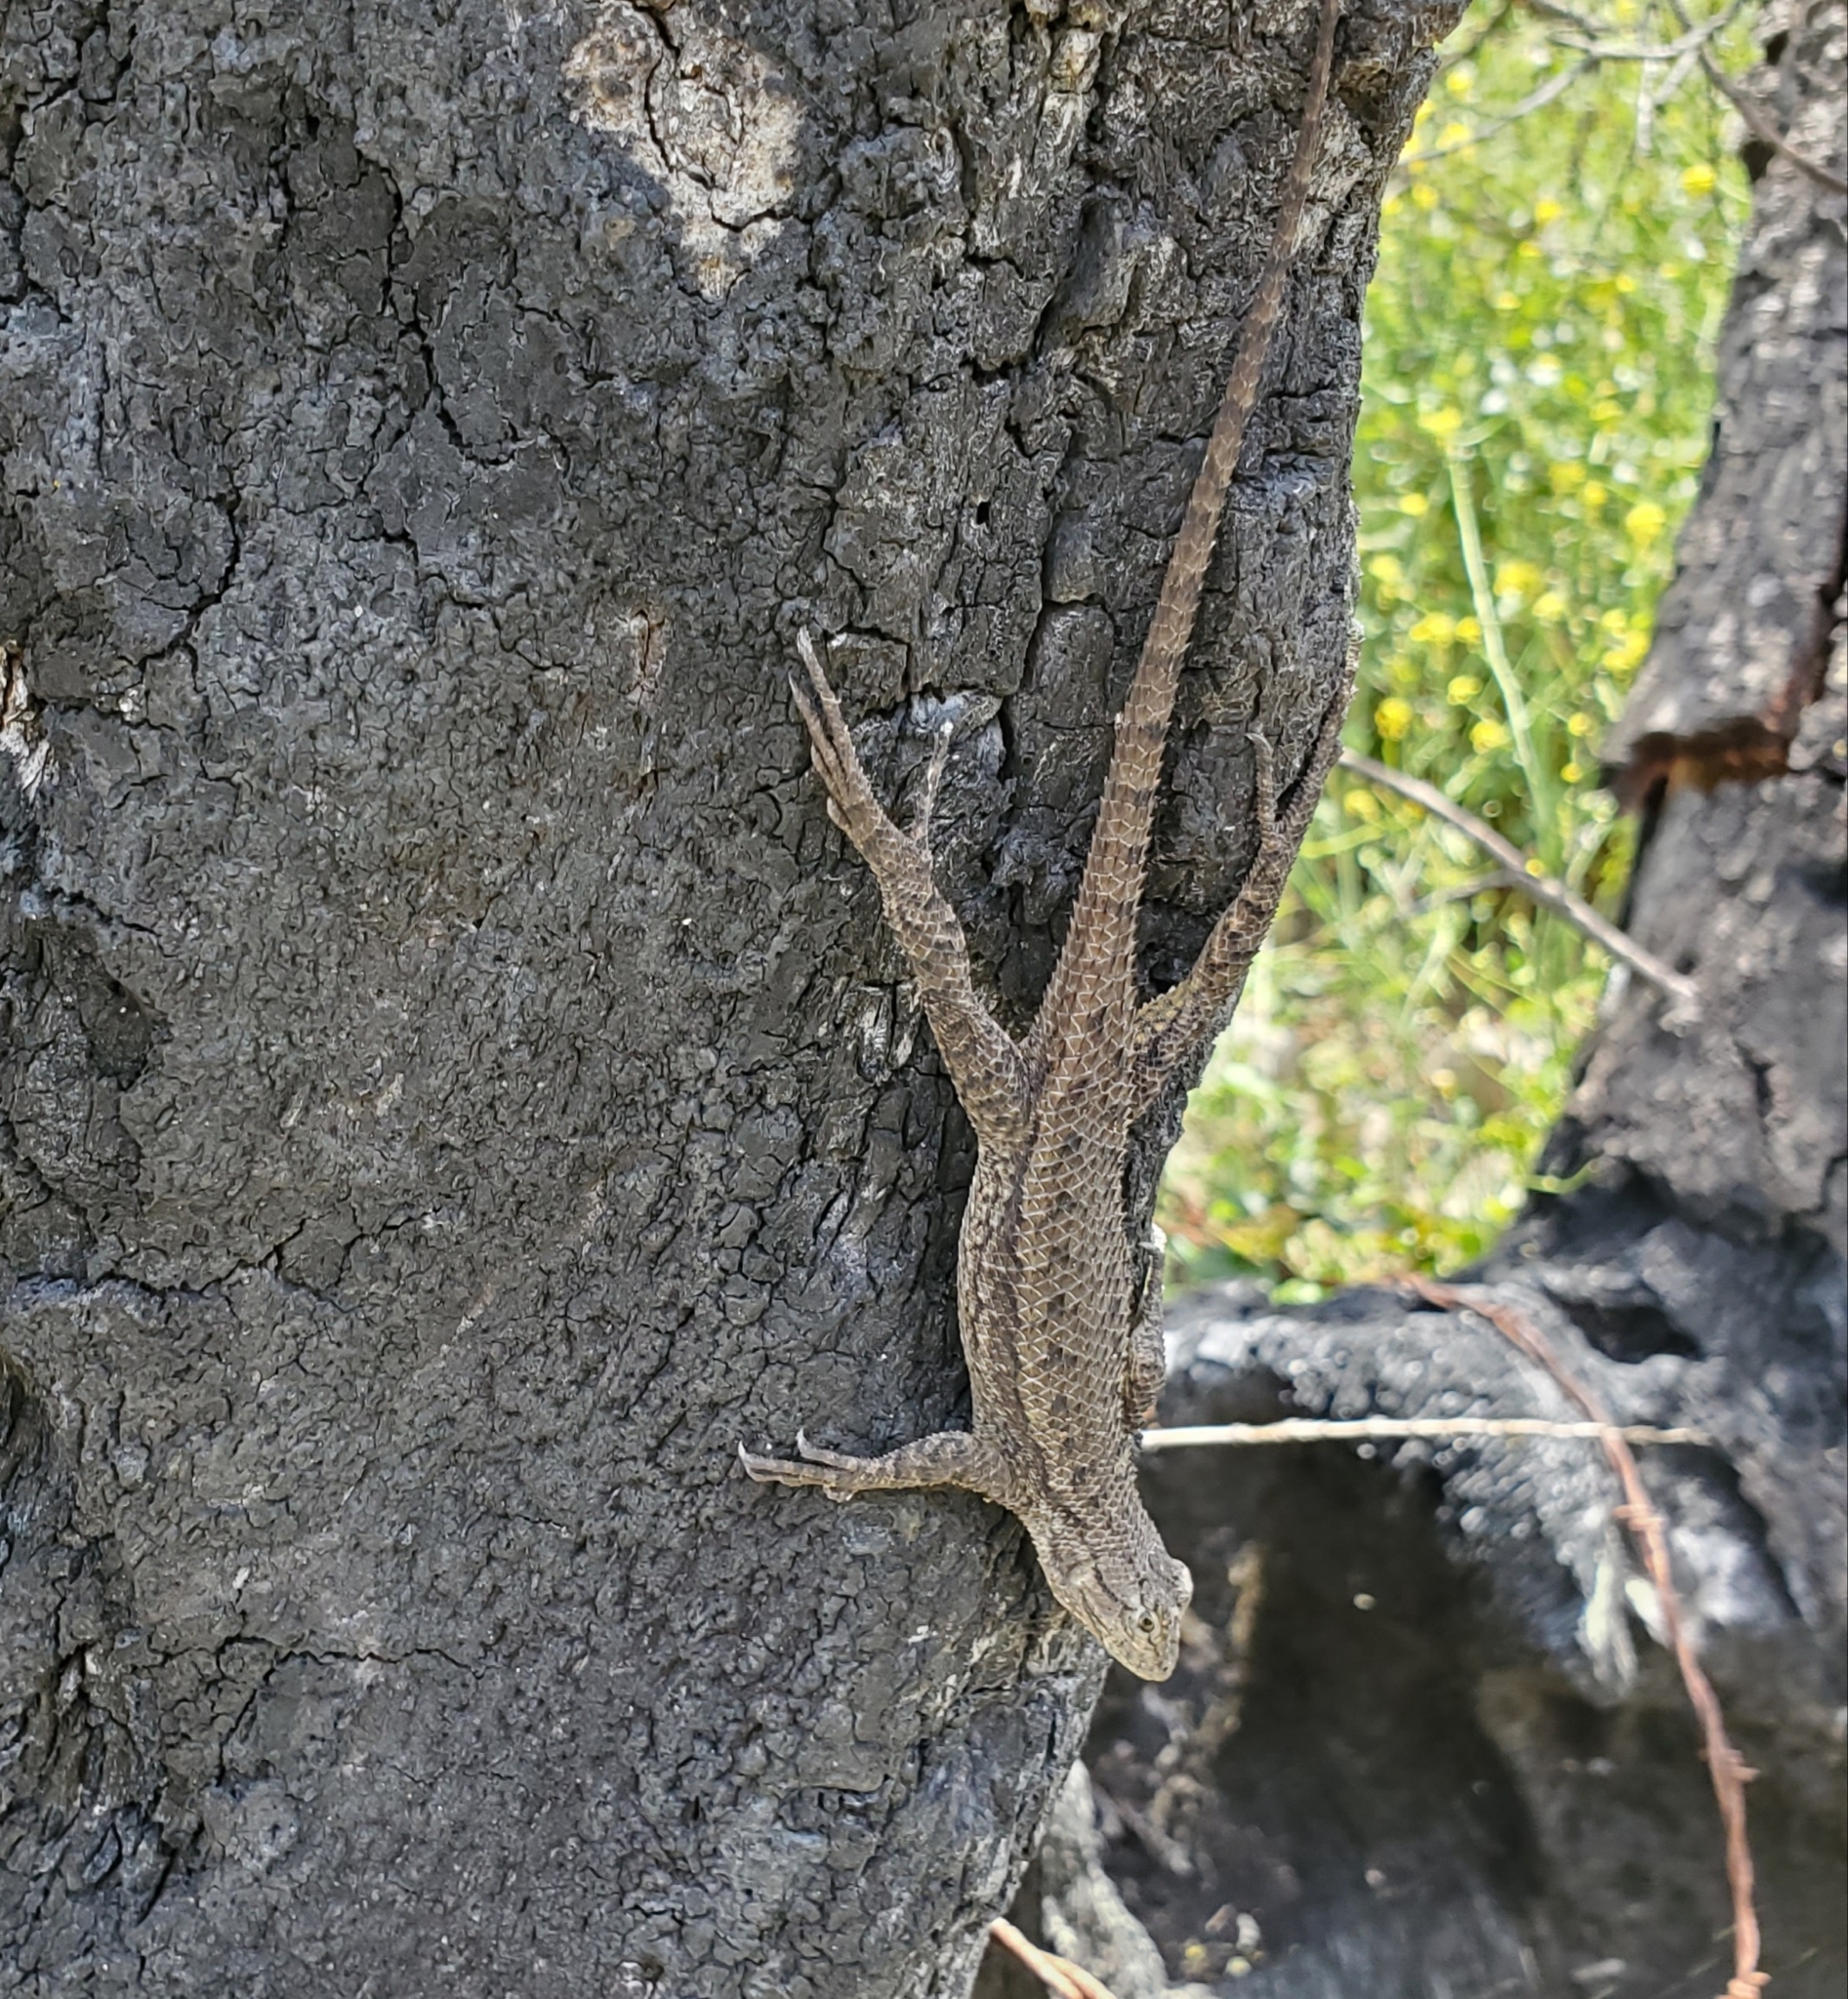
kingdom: Animalia
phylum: Chordata
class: Squamata
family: Phrynosomatidae
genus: Sceloporus
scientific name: Sceloporus occidentalis
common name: Western fence lizard
